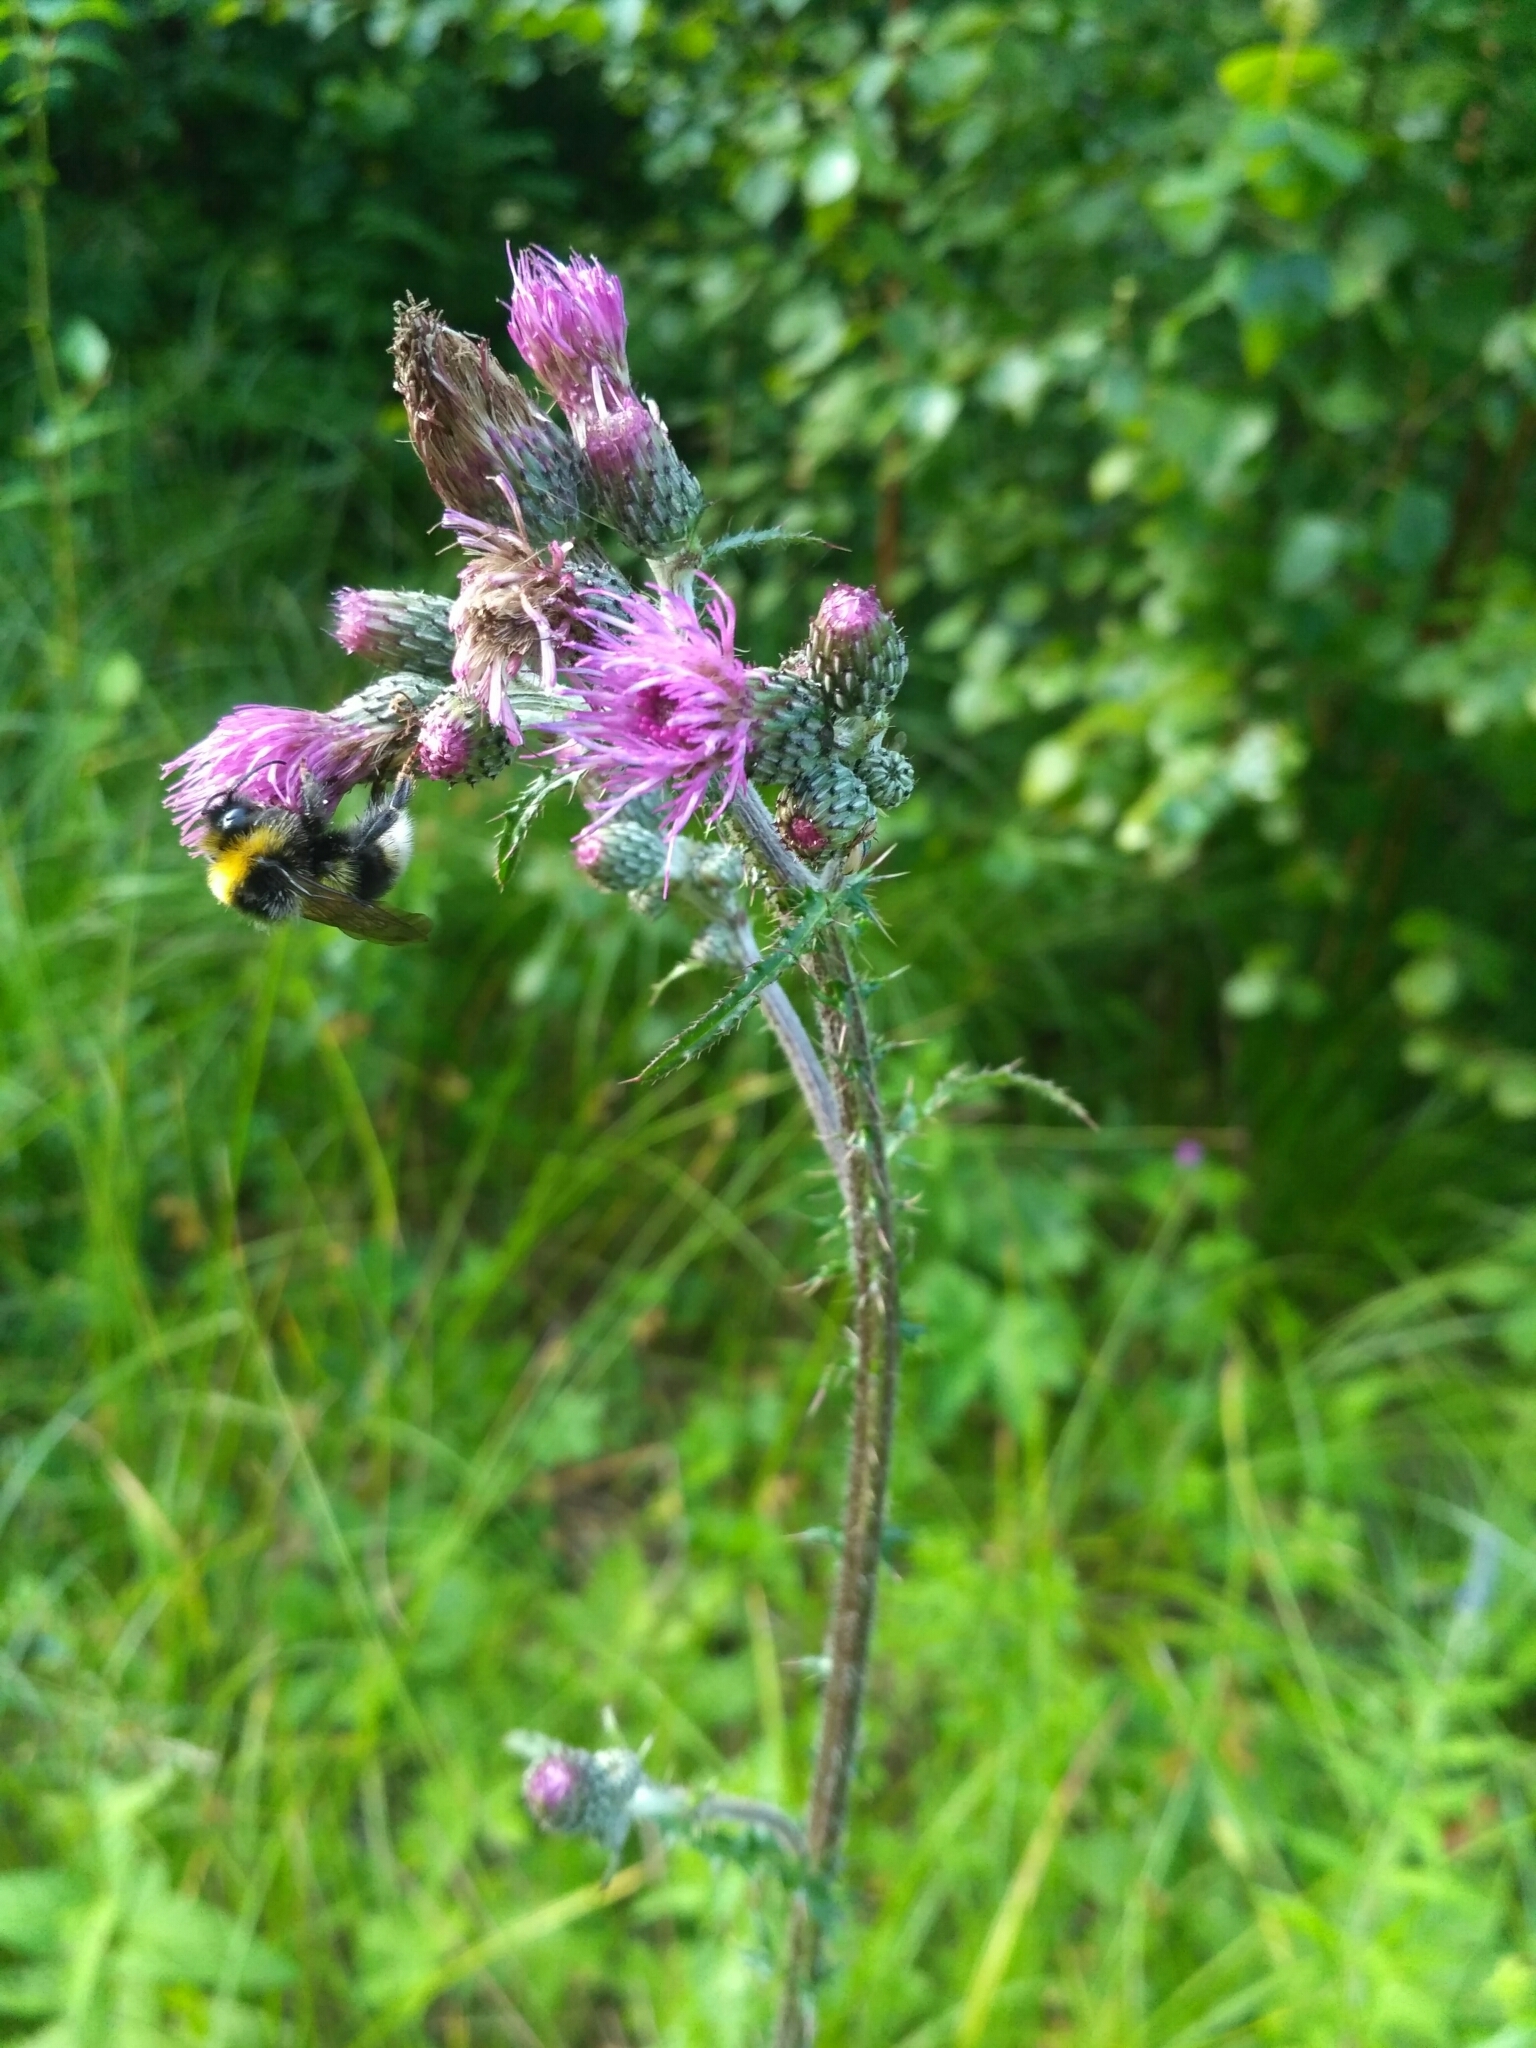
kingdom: Plantae
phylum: Tracheophyta
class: Magnoliopsida
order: Asterales
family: Asteraceae
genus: Cirsium
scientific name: Cirsium palustre
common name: Marsh thistle
